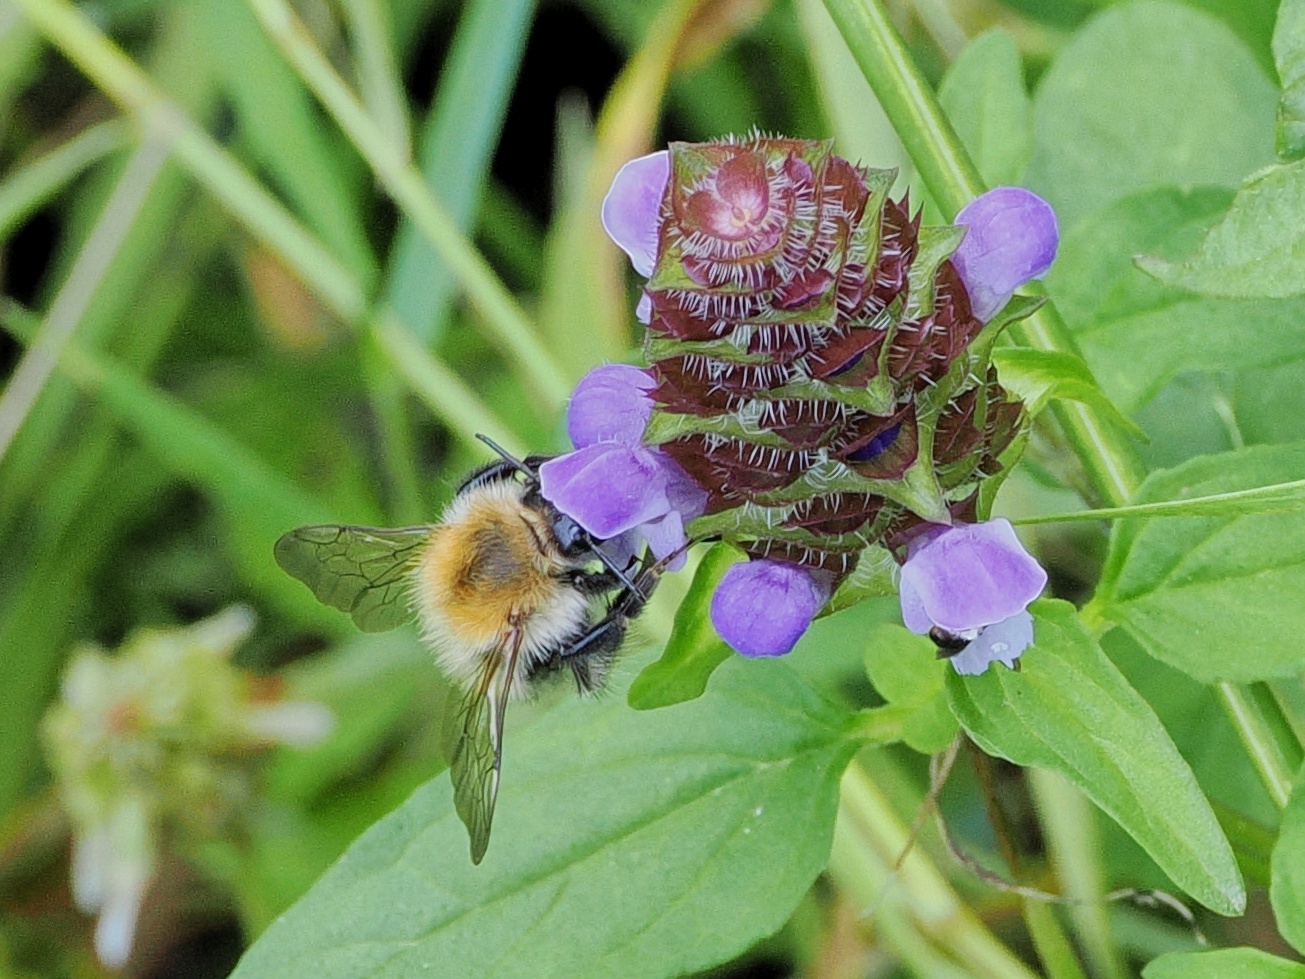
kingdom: Animalia
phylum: Arthropoda
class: Insecta
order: Hymenoptera
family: Apidae
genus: Bombus
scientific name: Bombus pascuorum
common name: Common carder bee
